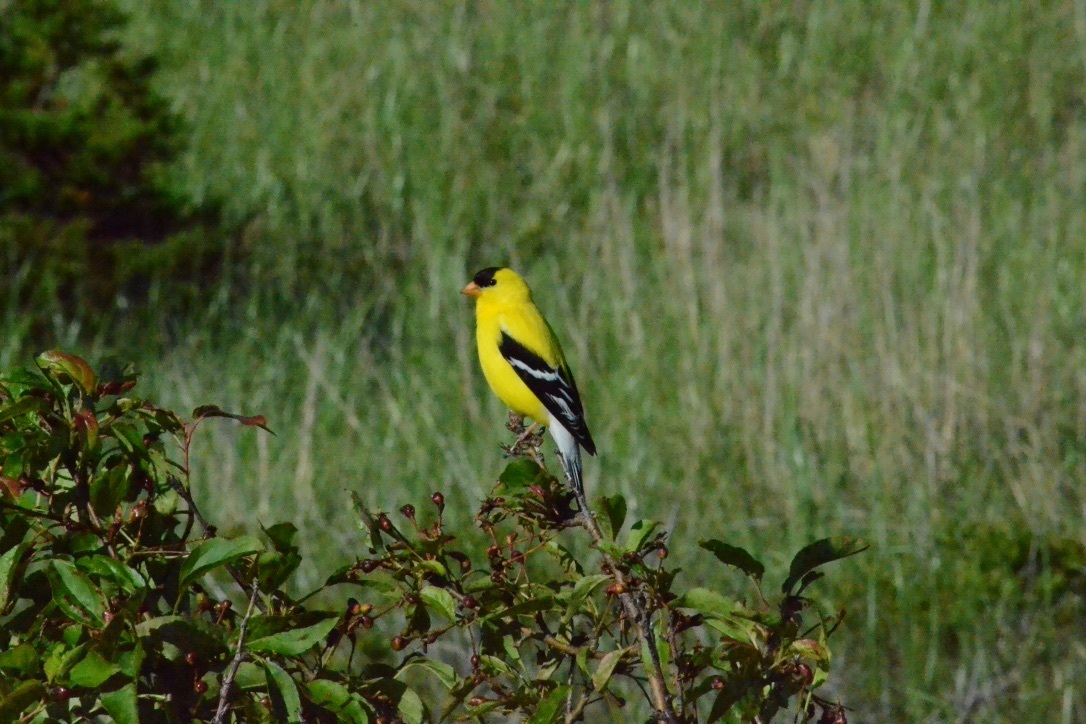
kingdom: Animalia
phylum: Chordata
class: Aves
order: Passeriformes
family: Fringillidae
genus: Spinus
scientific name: Spinus tristis
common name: American goldfinch
